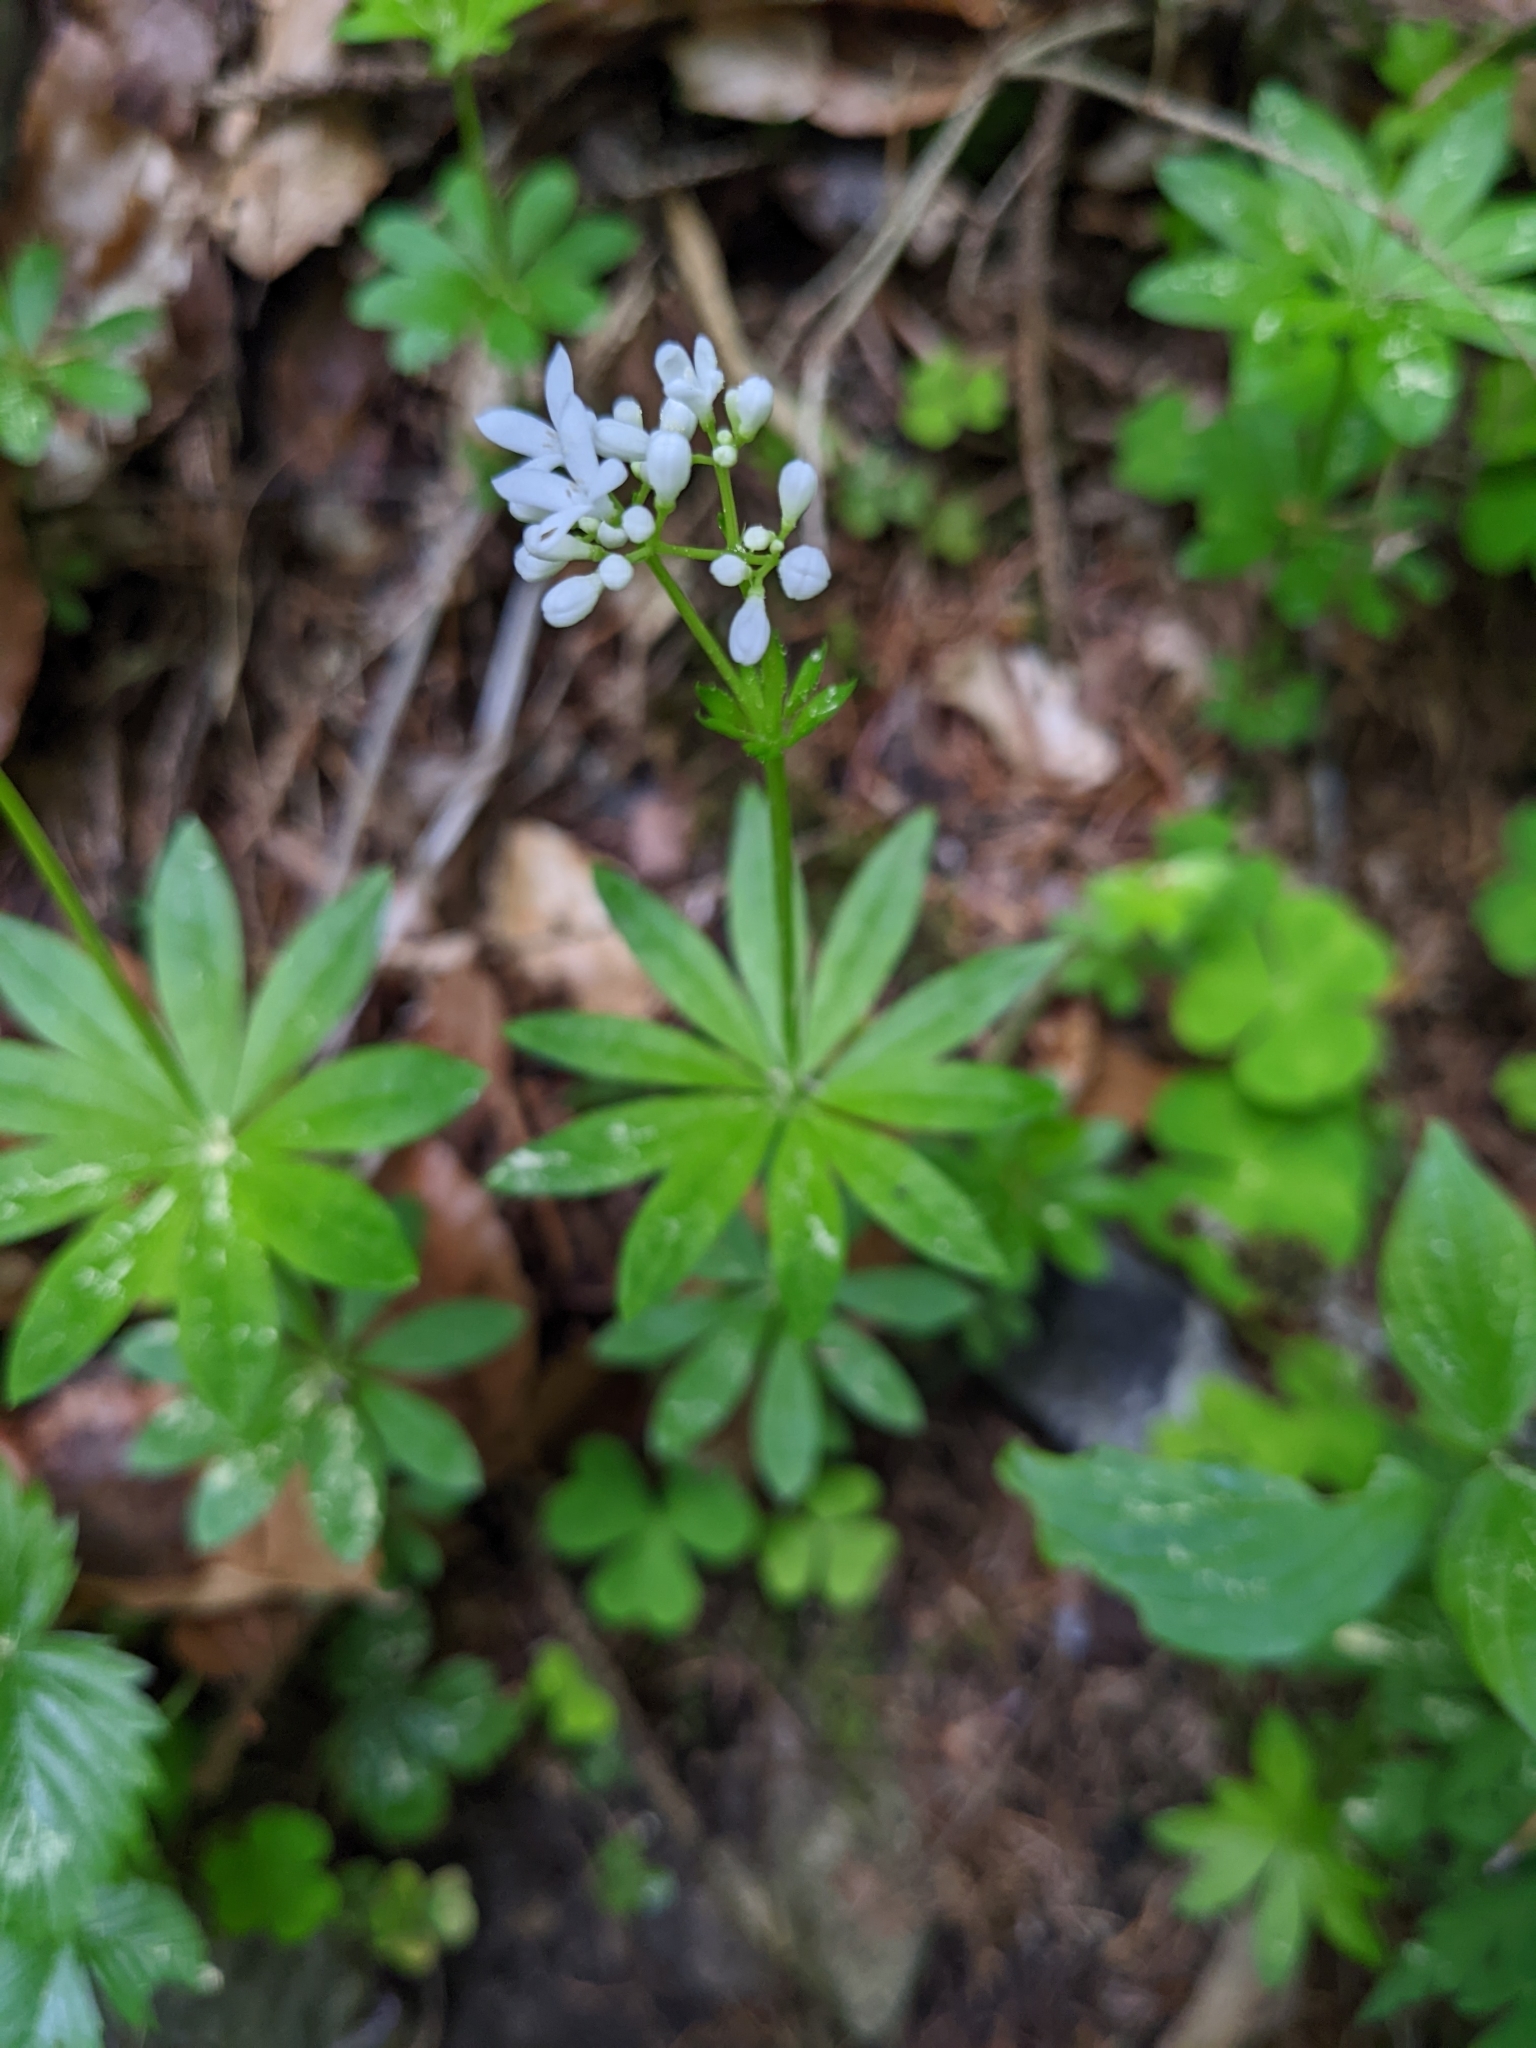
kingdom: Plantae
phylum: Tracheophyta
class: Magnoliopsida
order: Gentianales
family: Rubiaceae
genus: Galium
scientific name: Galium odoratum
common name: Sweet woodruff
